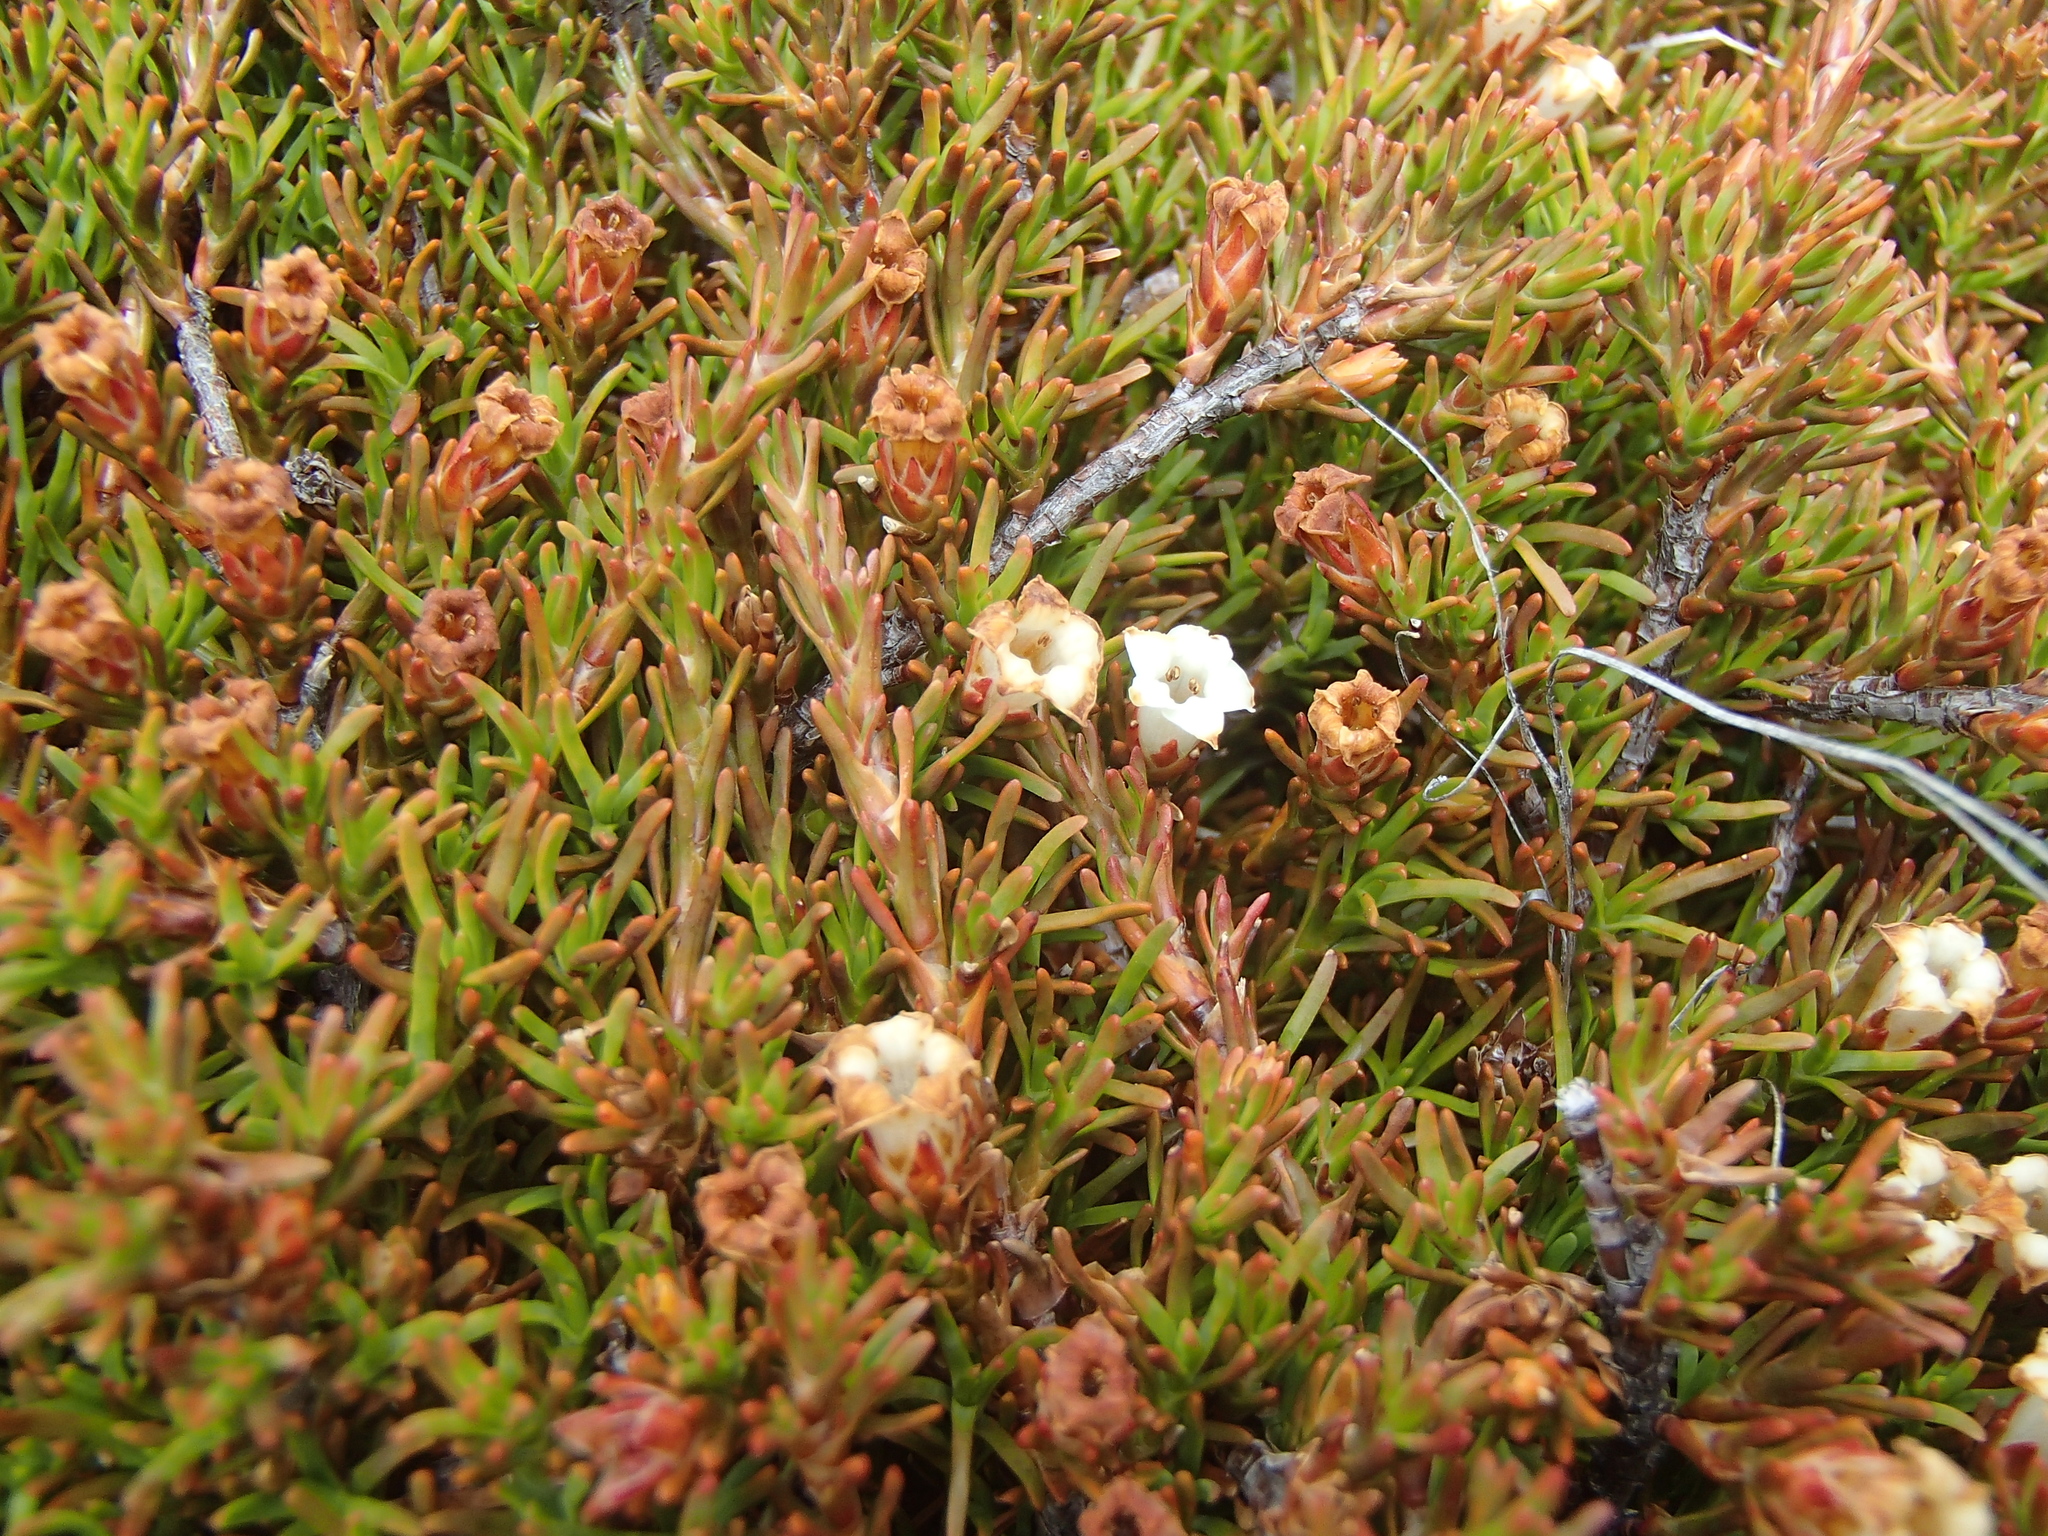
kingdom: Plantae
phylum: Tracheophyta
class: Magnoliopsida
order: Ericales
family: Ericaceae
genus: Dracophyllum
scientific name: Dracophyllum pronum
